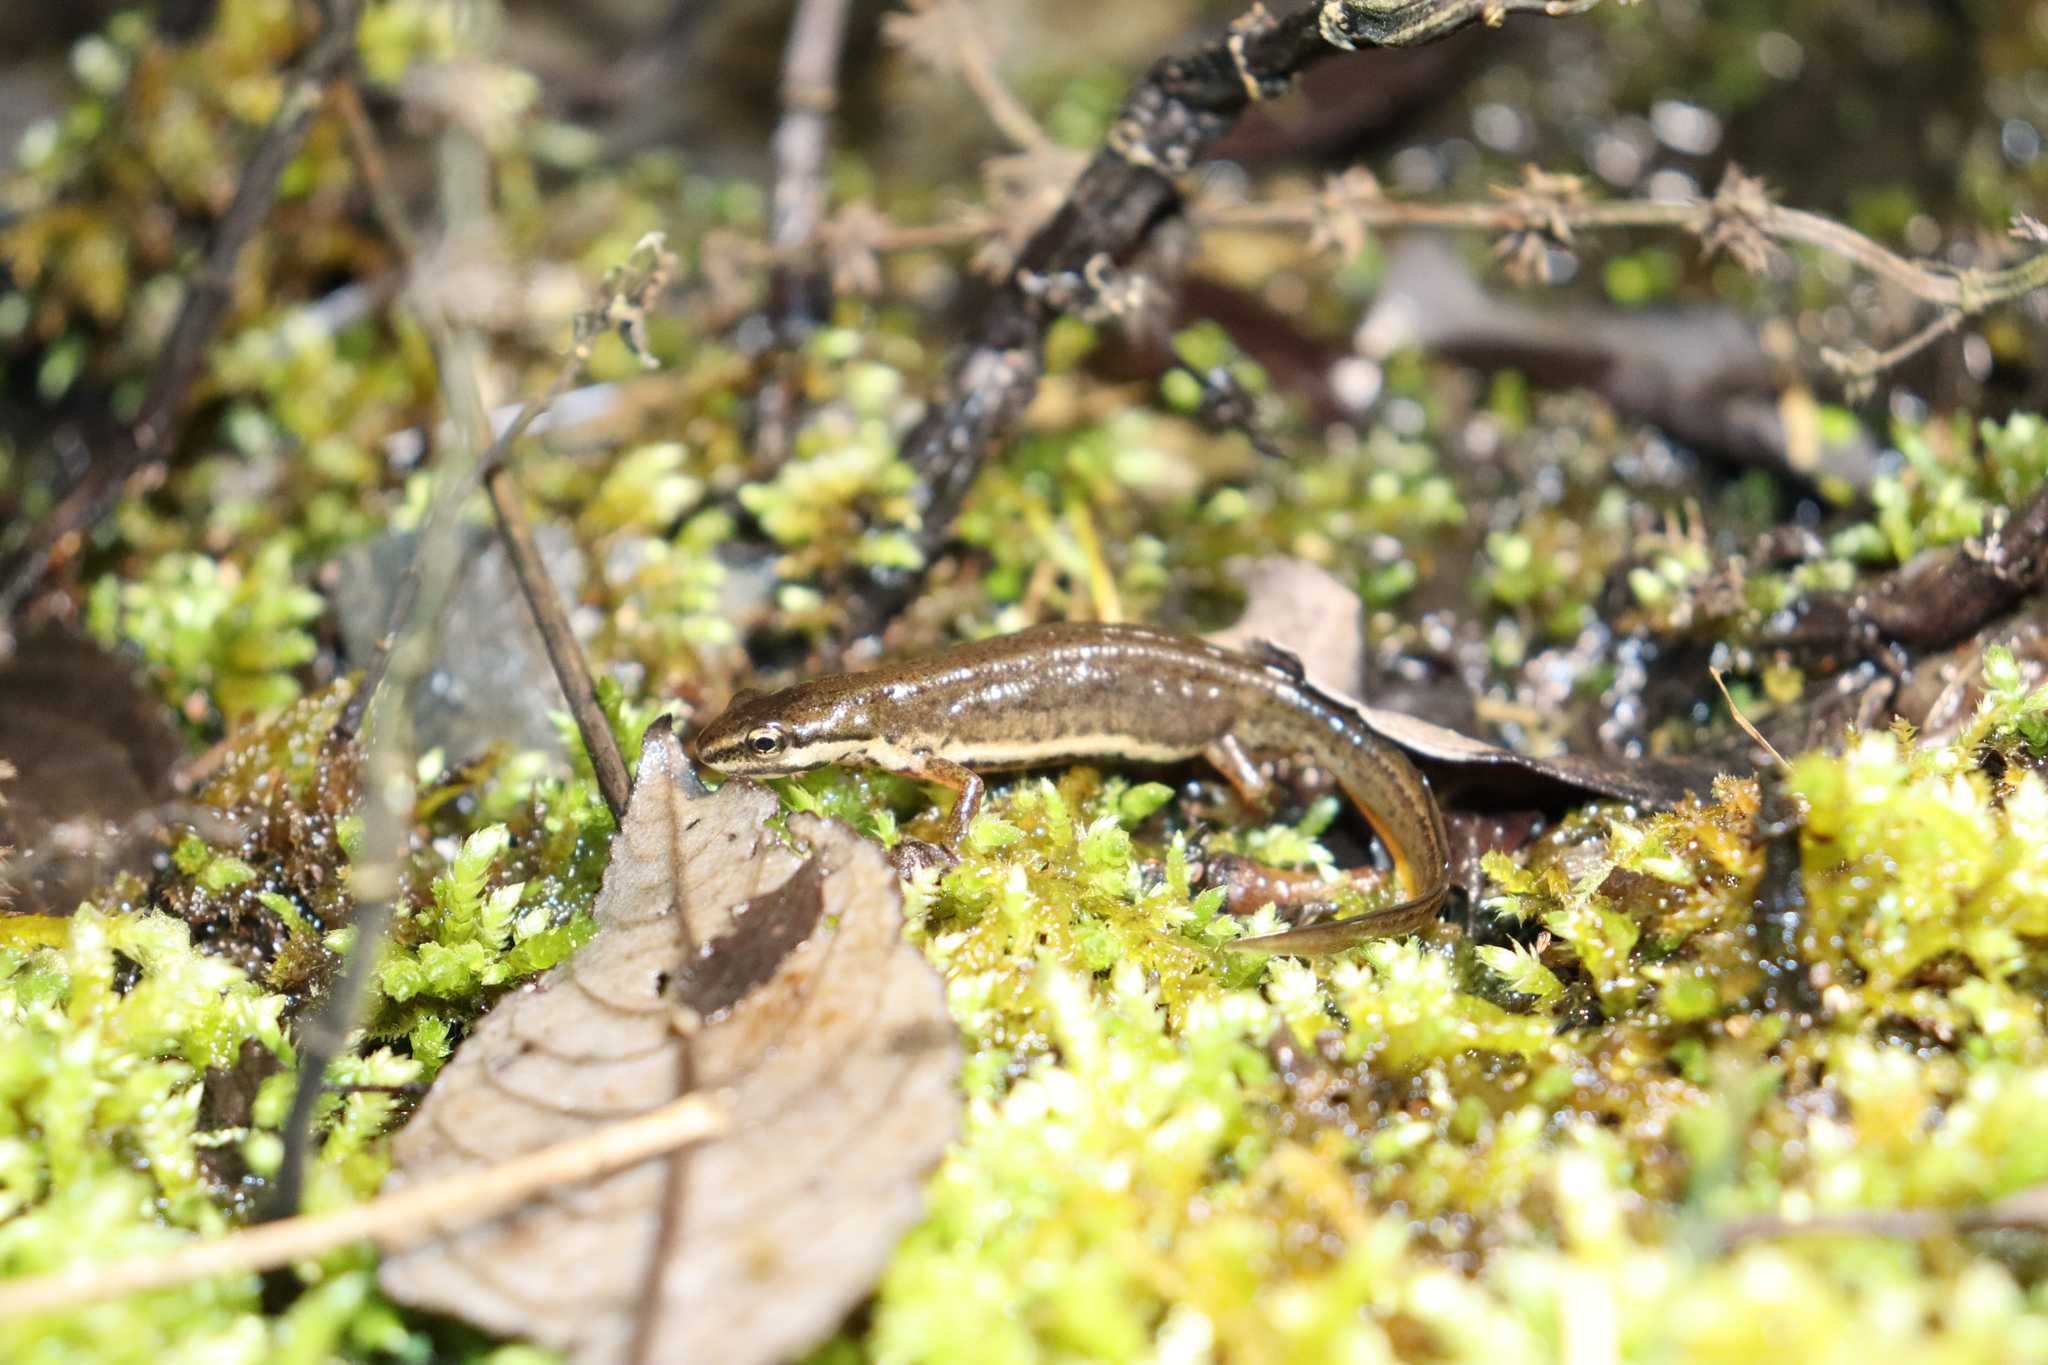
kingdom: Animalia
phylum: Chordata
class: Amphibia
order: Caudata
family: Salamandridae
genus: Lissotriton
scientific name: Lissotriton vulgaris
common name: Smooth newt
